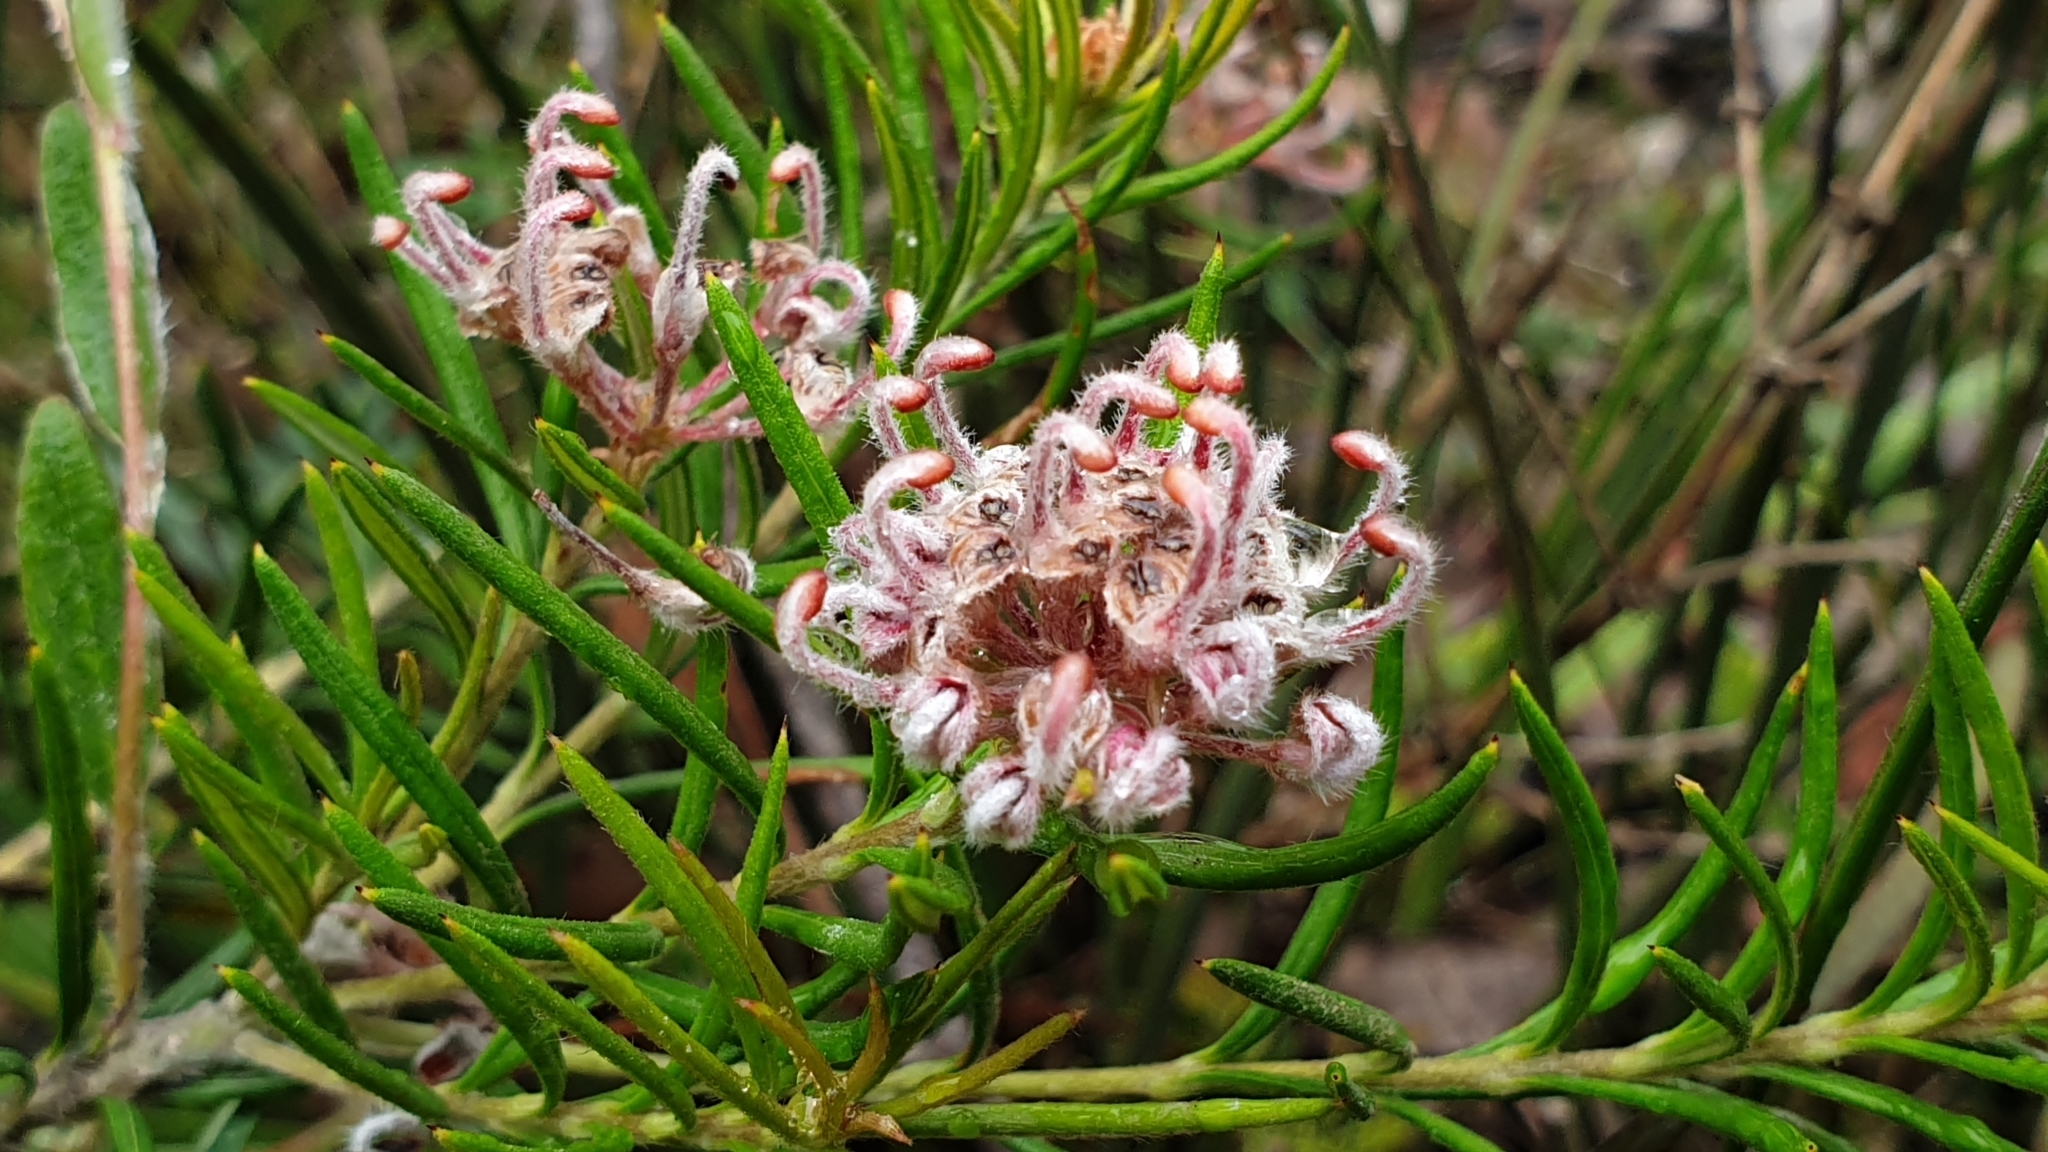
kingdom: Plantae
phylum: Tracheophyta
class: Magnoliopsida
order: Proteales
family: Proteaceae
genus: Grevillea
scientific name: Grevillea acerata
